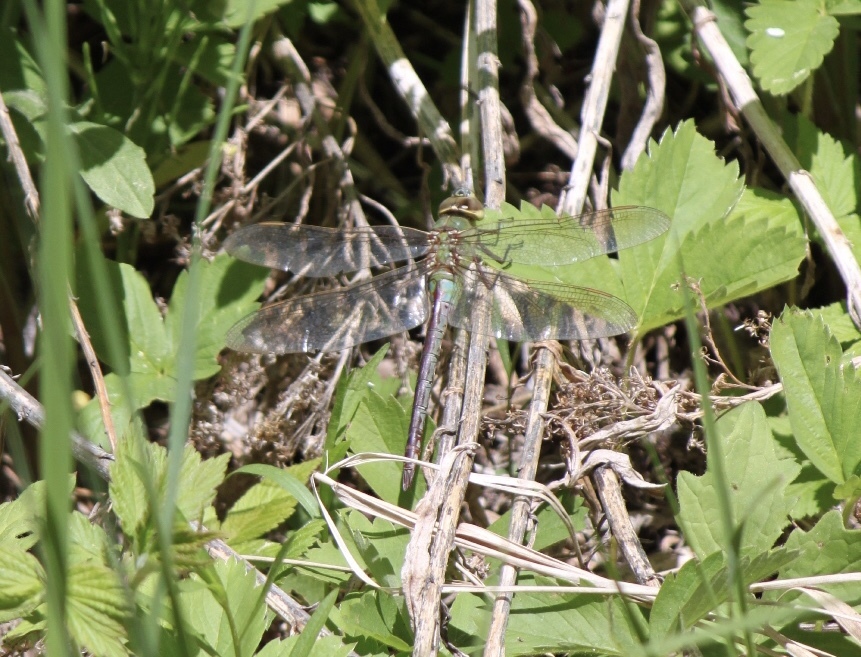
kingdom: Animalia
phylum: Arthropoda
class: Insecta
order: Odonata
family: Aeshnidae
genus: Anax
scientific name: Anax junius
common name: Common green darner
